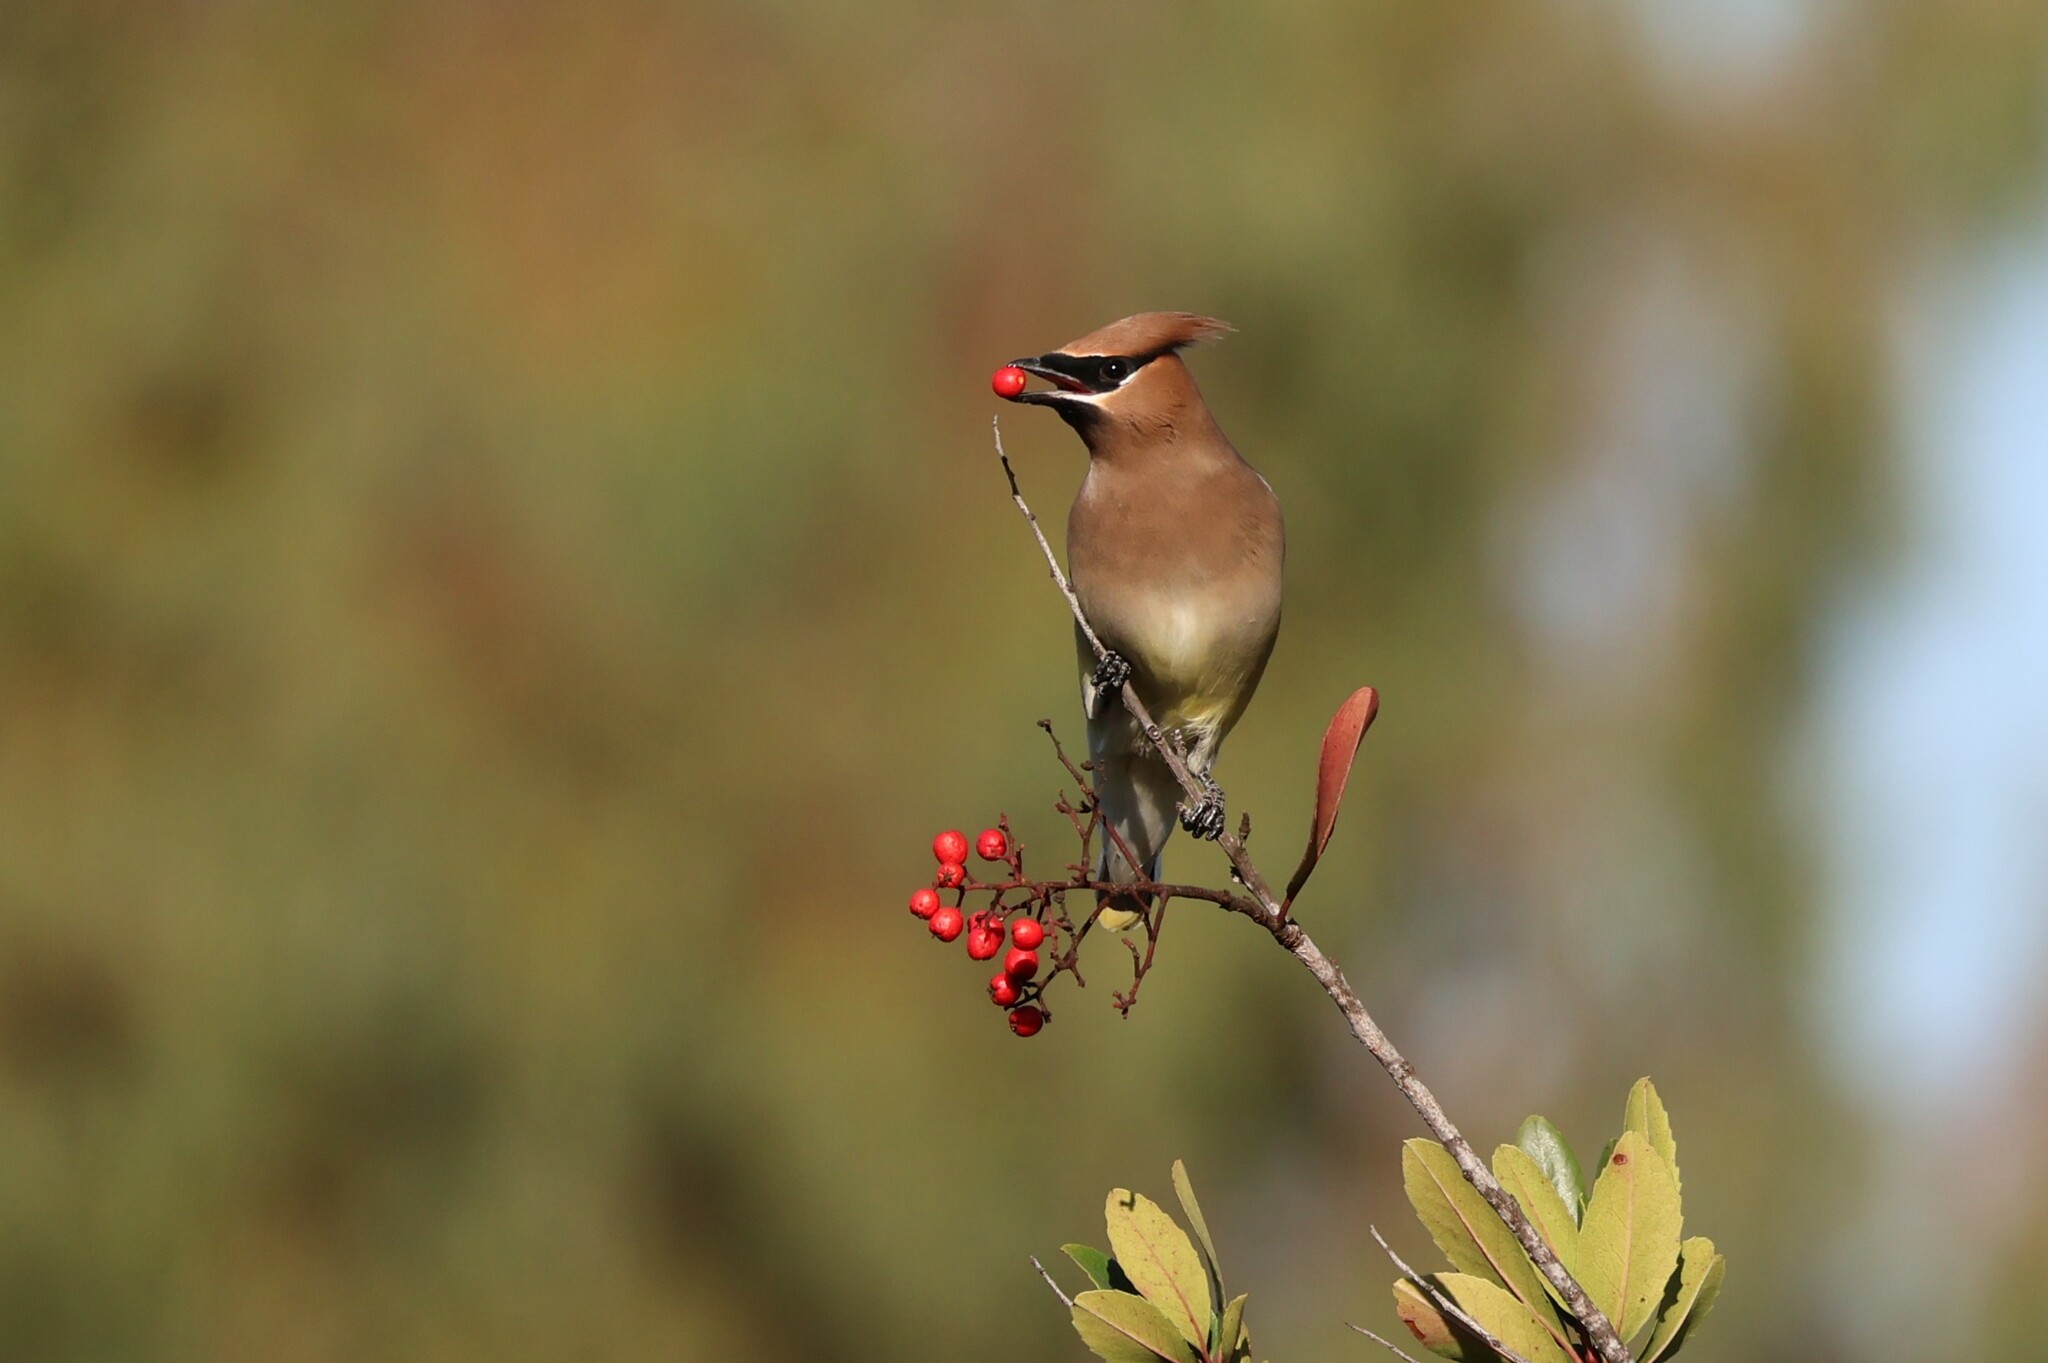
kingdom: Animalia
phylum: Chordata
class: Aves
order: Passeriformes
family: Bombycillidae
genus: Bombycilla
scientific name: Bombycilla cedrorum
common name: Cedar waxwing
